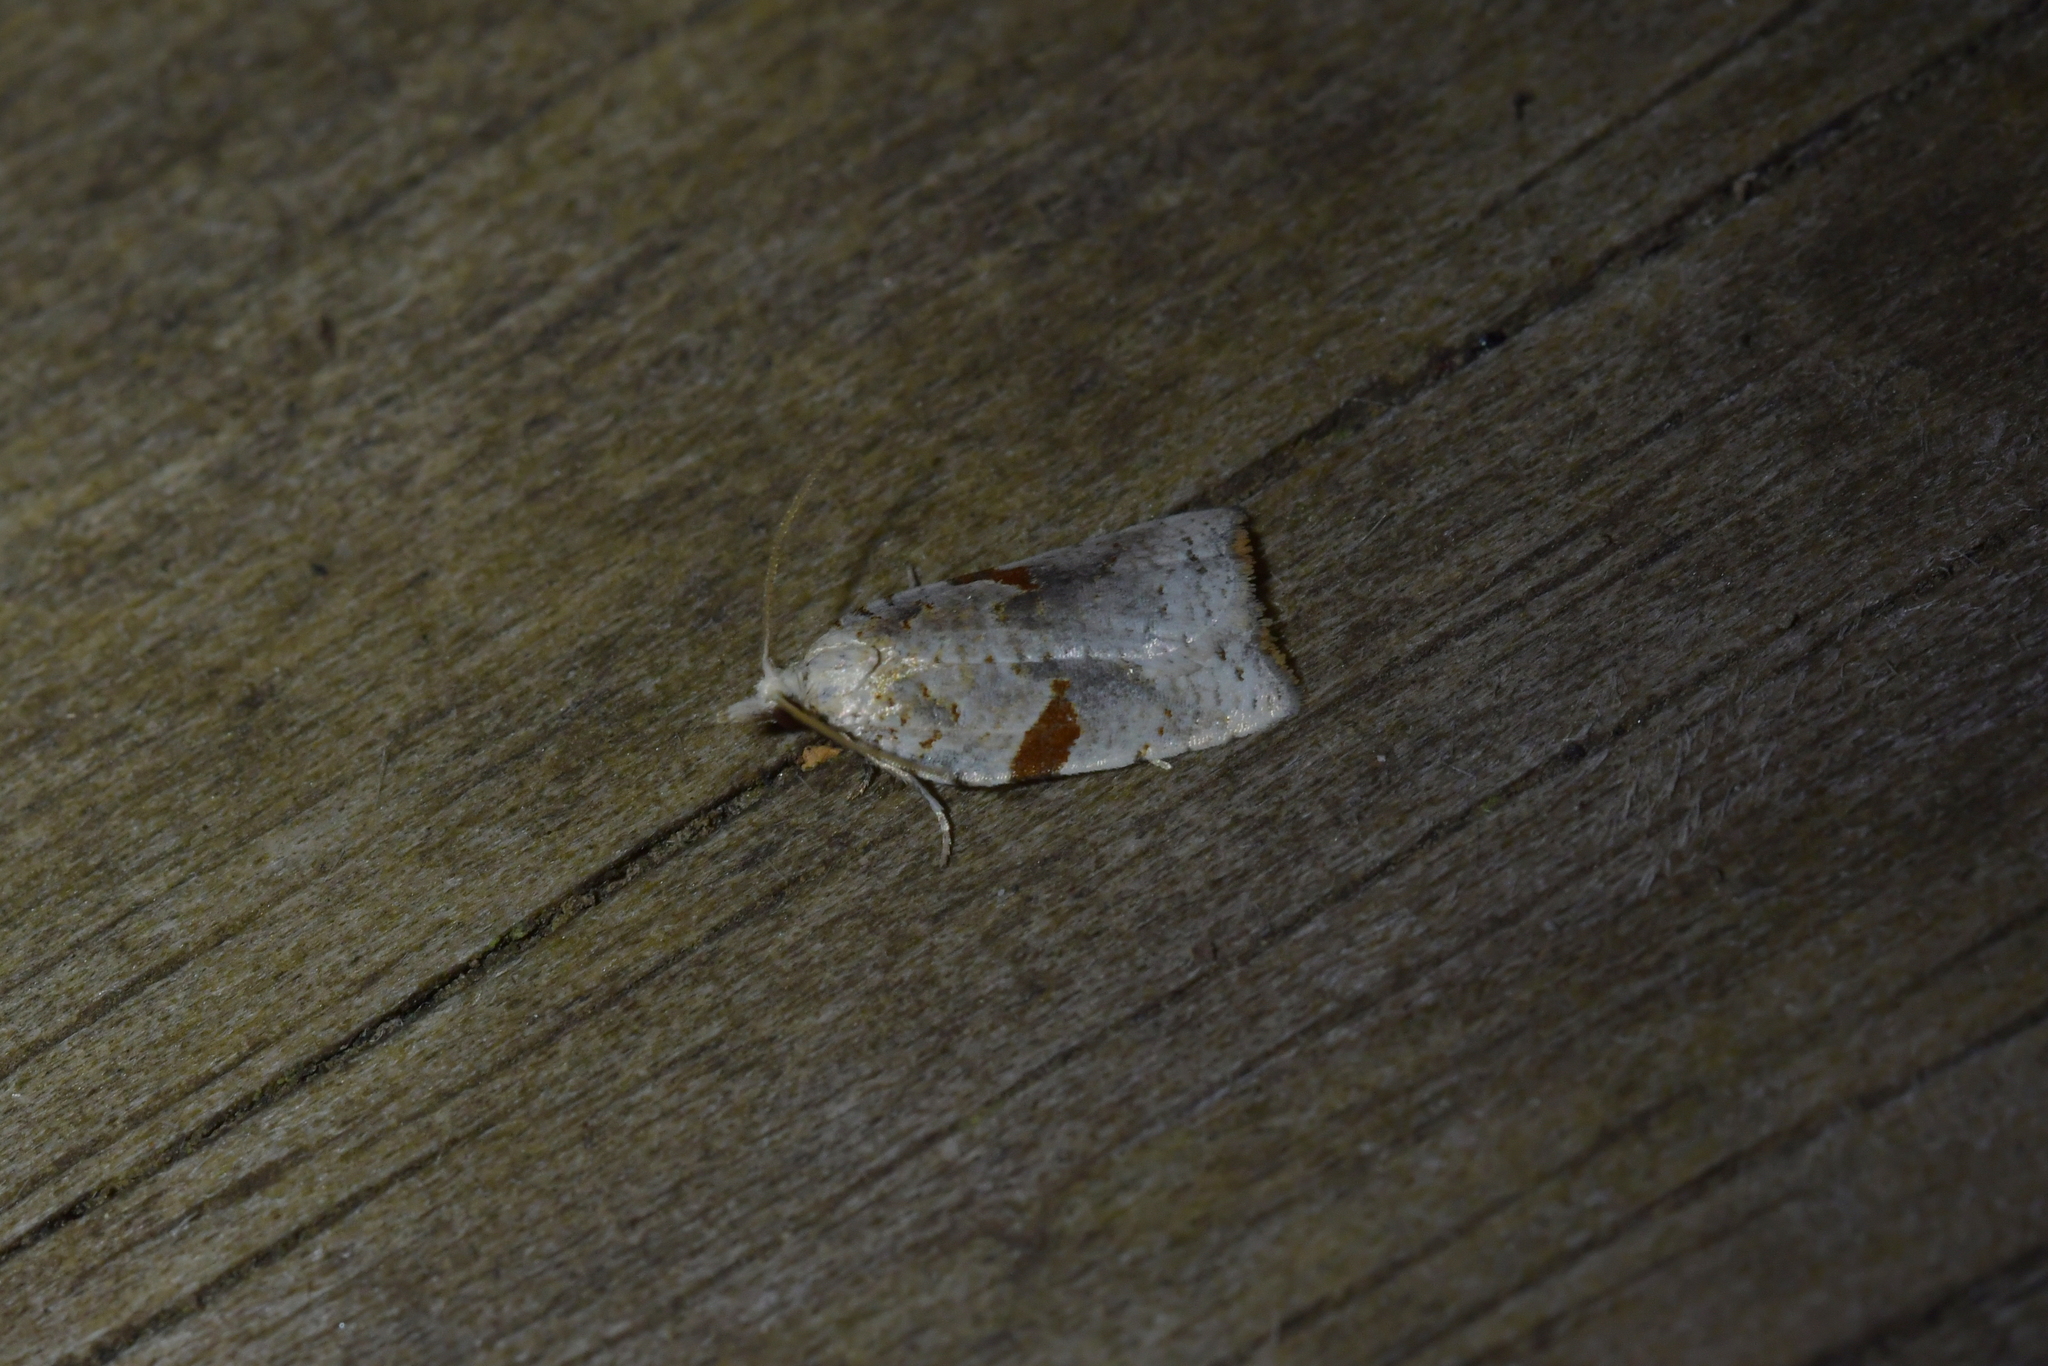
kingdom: Animalia
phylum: Arthropoda
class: Insecta
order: Lepidoptera
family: Tortricidae
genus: Leucotenes
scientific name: Leucotenes coprosmae
